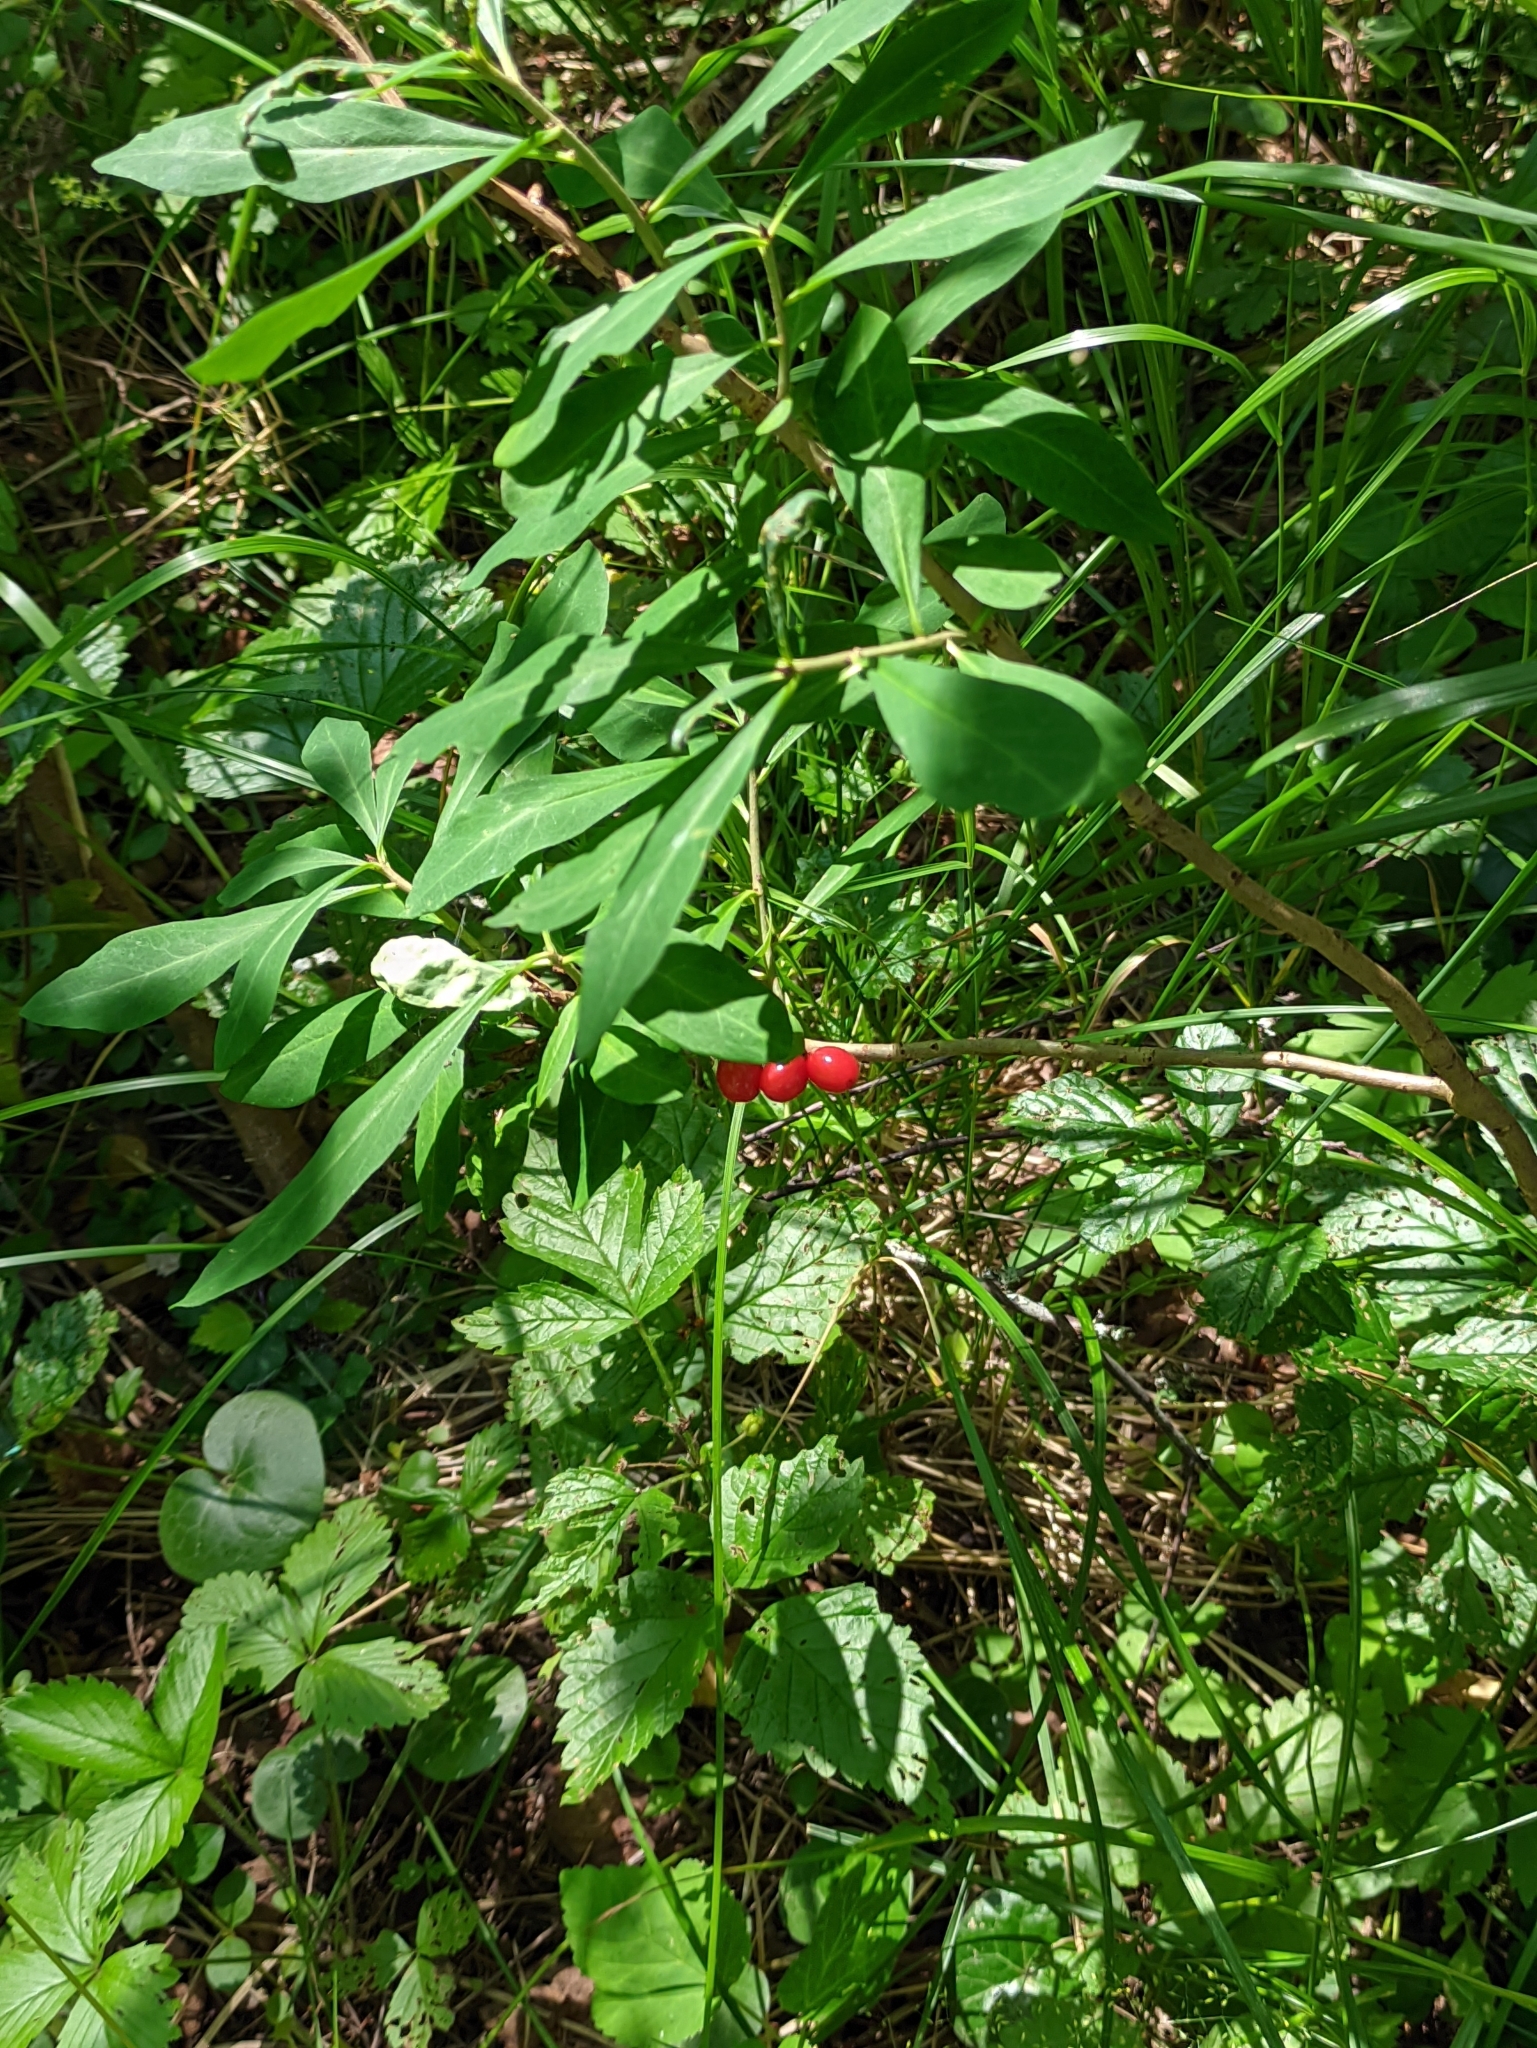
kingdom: Plantae
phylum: Tracheophyta
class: Magnoliopsida
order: Malvales
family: Thymelaeaceae
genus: Daphne
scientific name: Daphne mezereum
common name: Mezereon
